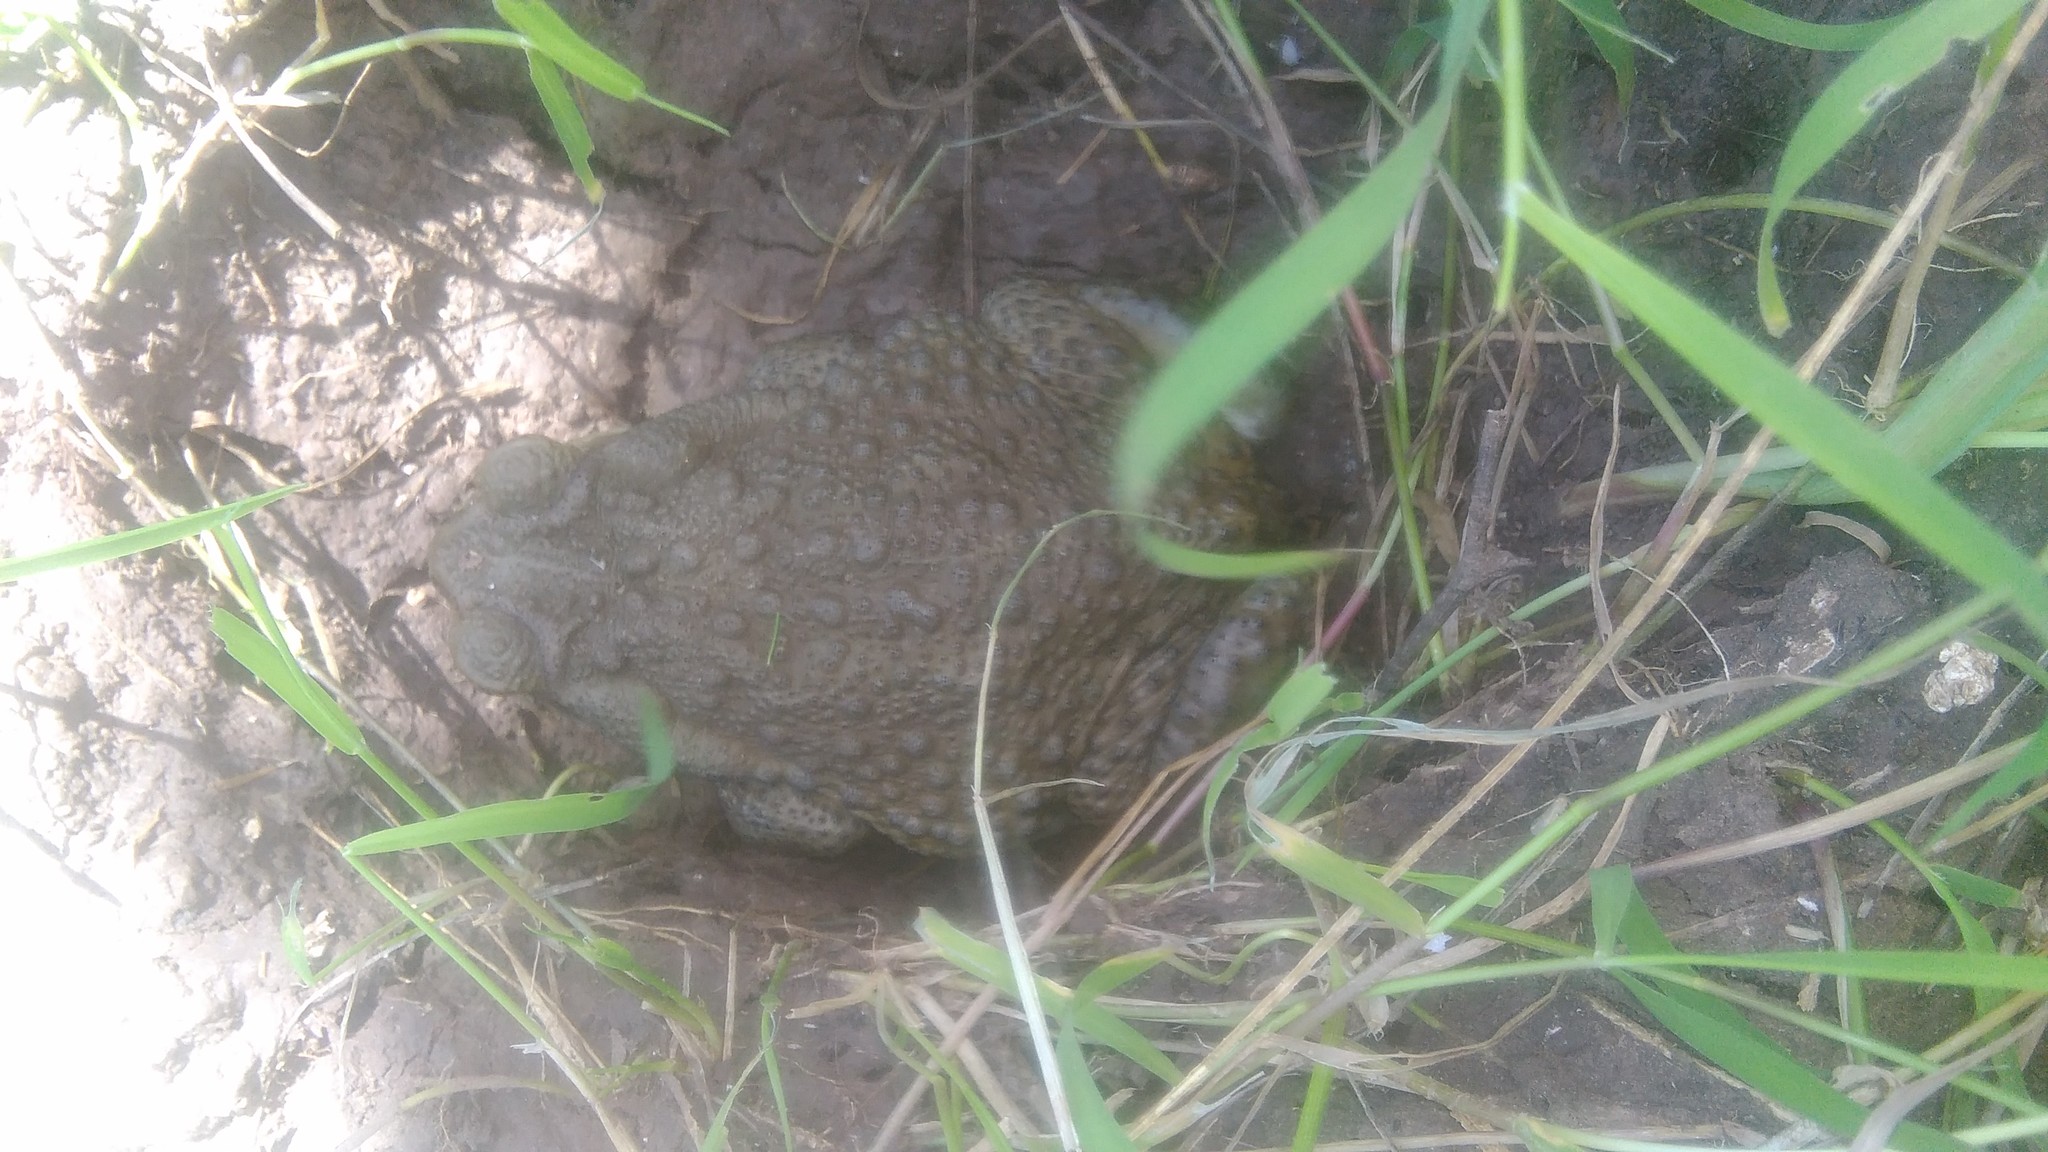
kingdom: Animalia
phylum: Chordata
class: Amphibia
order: Anura
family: Bufonidae
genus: Rhinella
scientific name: Rhinella arenarum
